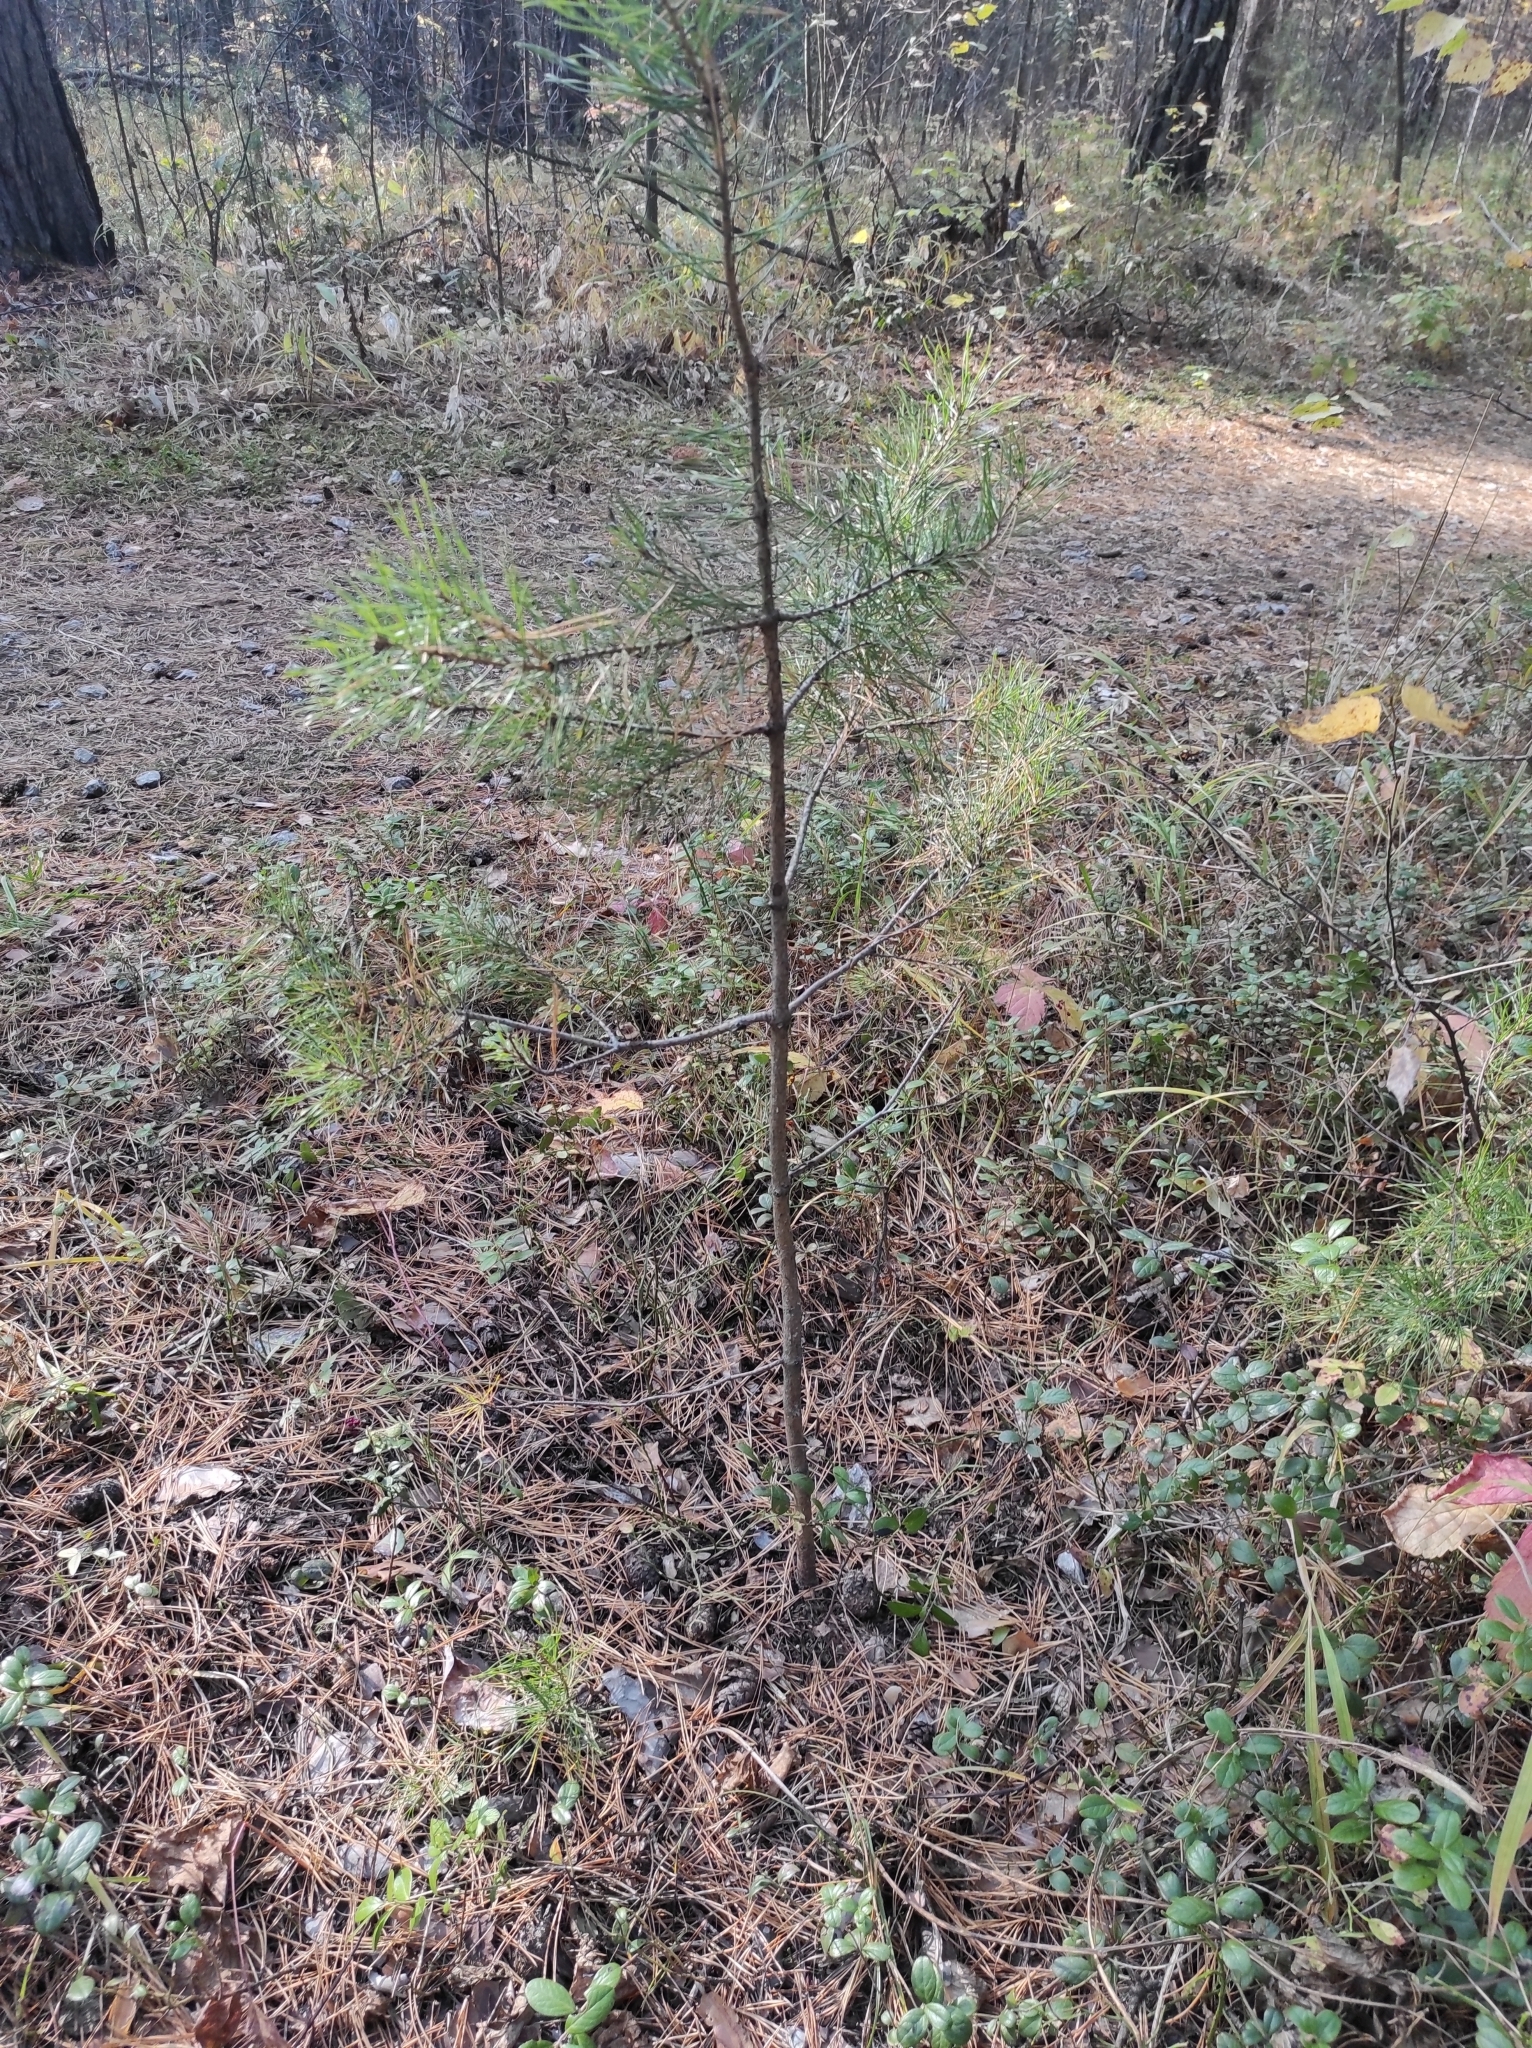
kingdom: Plantae
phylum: Tracheophyta
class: Pinopsida
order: Pinales
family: Pinaceae
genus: Pinus
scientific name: Pinus sylvestris
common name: Scots pine
